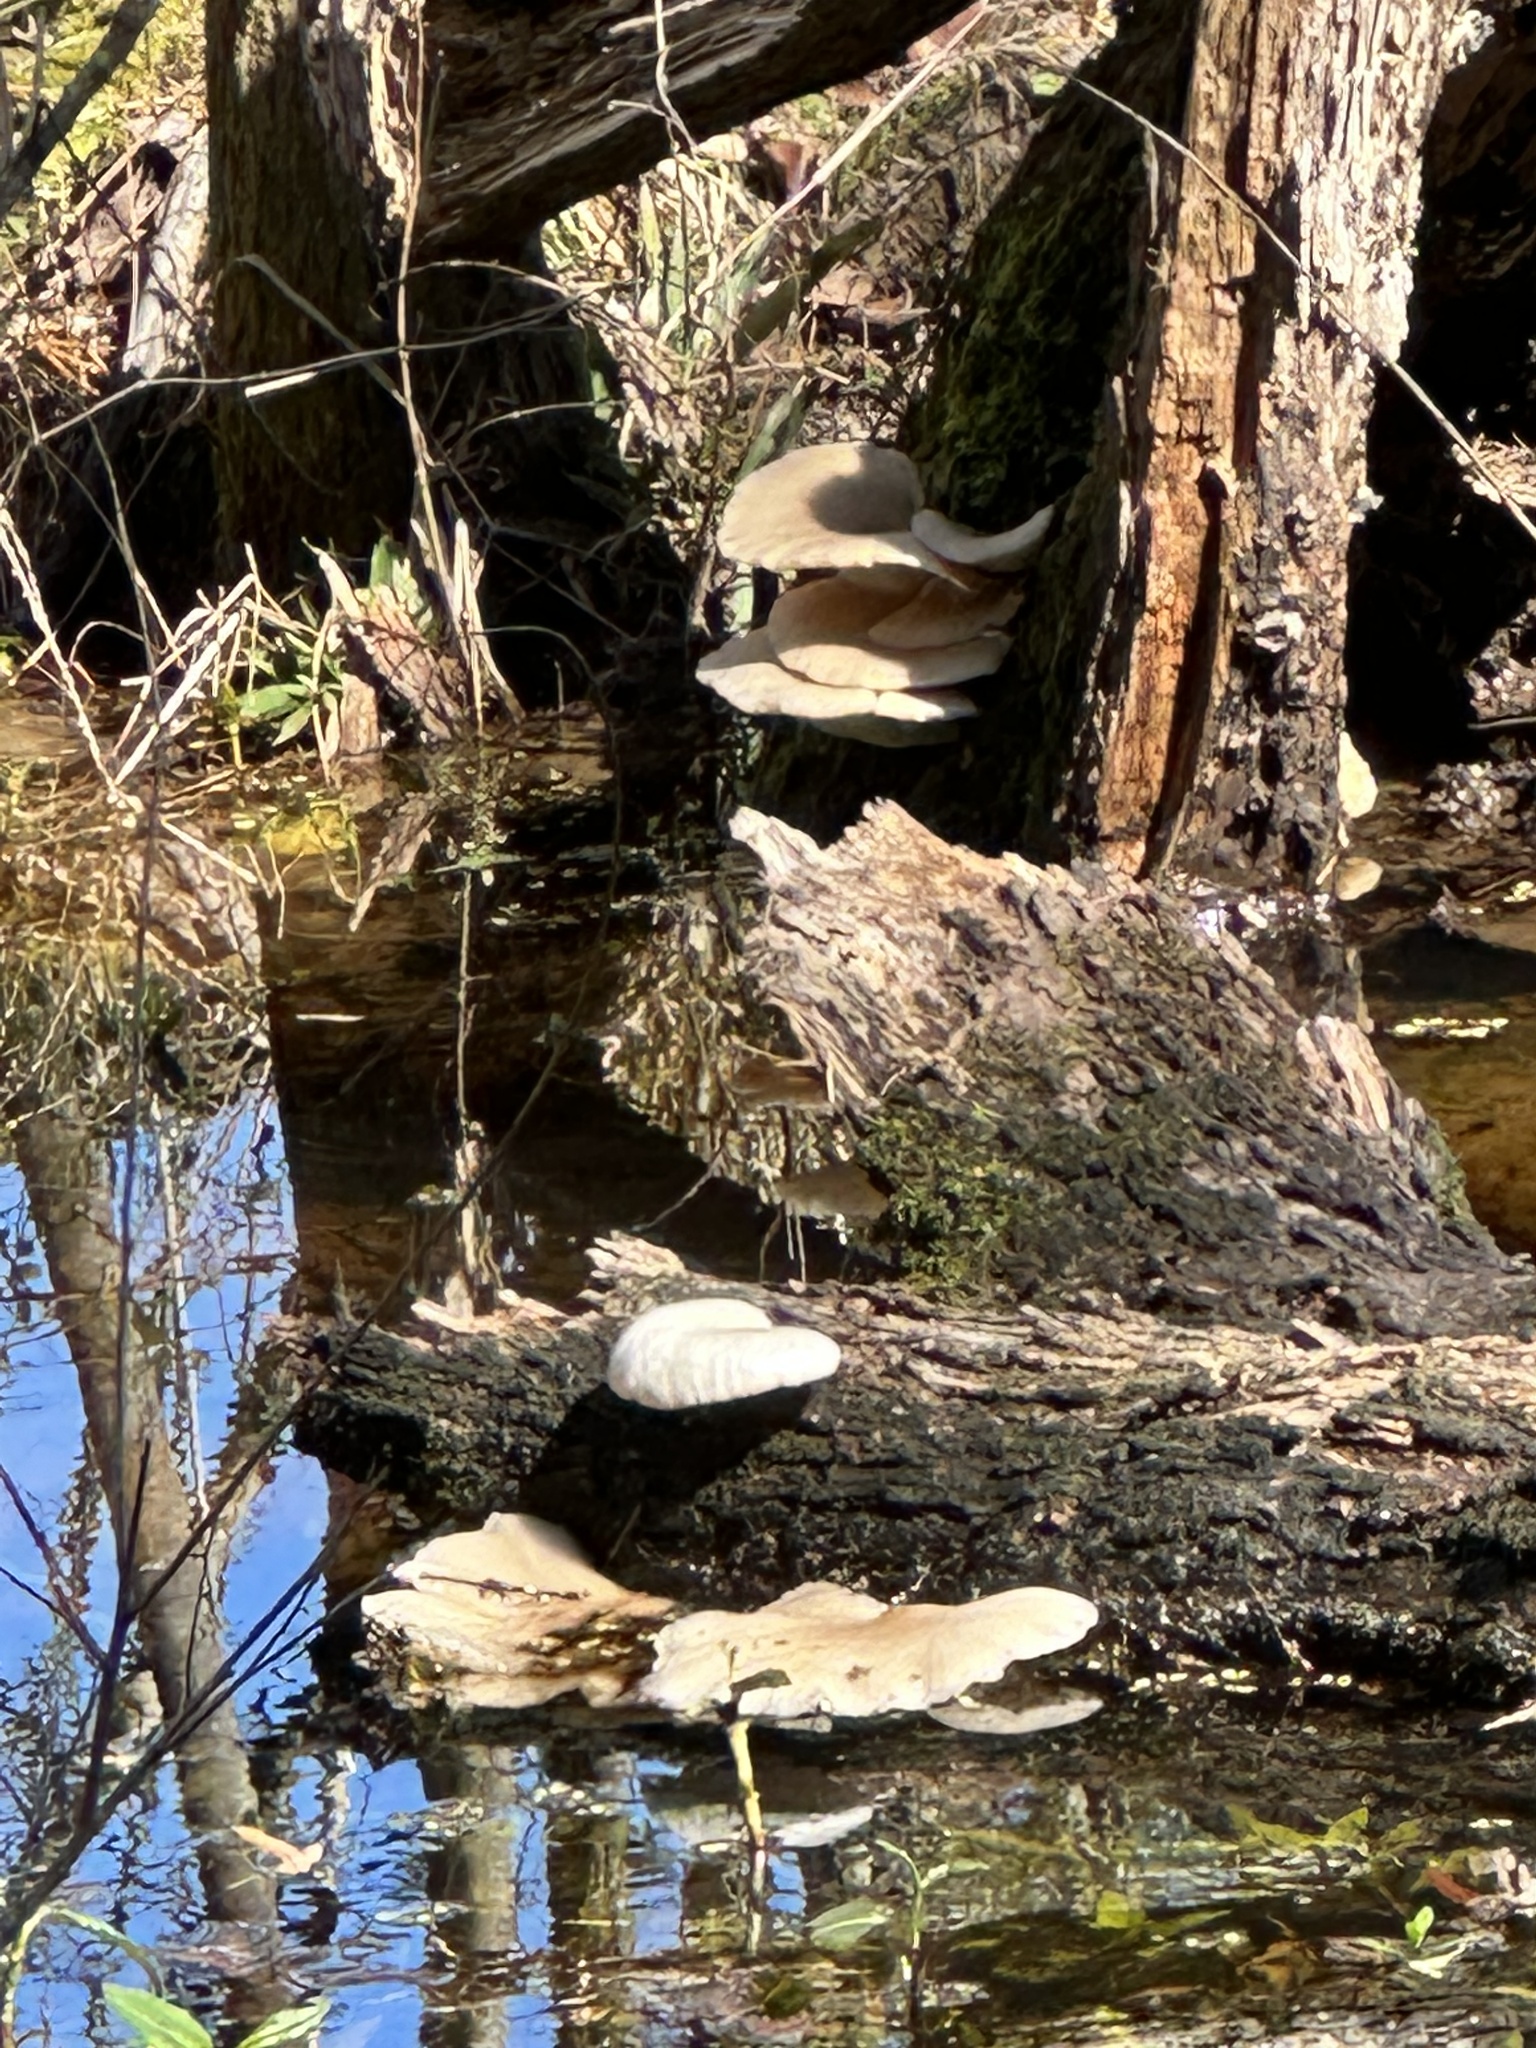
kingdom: Fungi
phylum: Basidiomycota
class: Agaricomycetes
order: Agaricales
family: Pleurotaceae
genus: Pleurotus
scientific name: Pleurotus ostreatus
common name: Oyster mushroom
